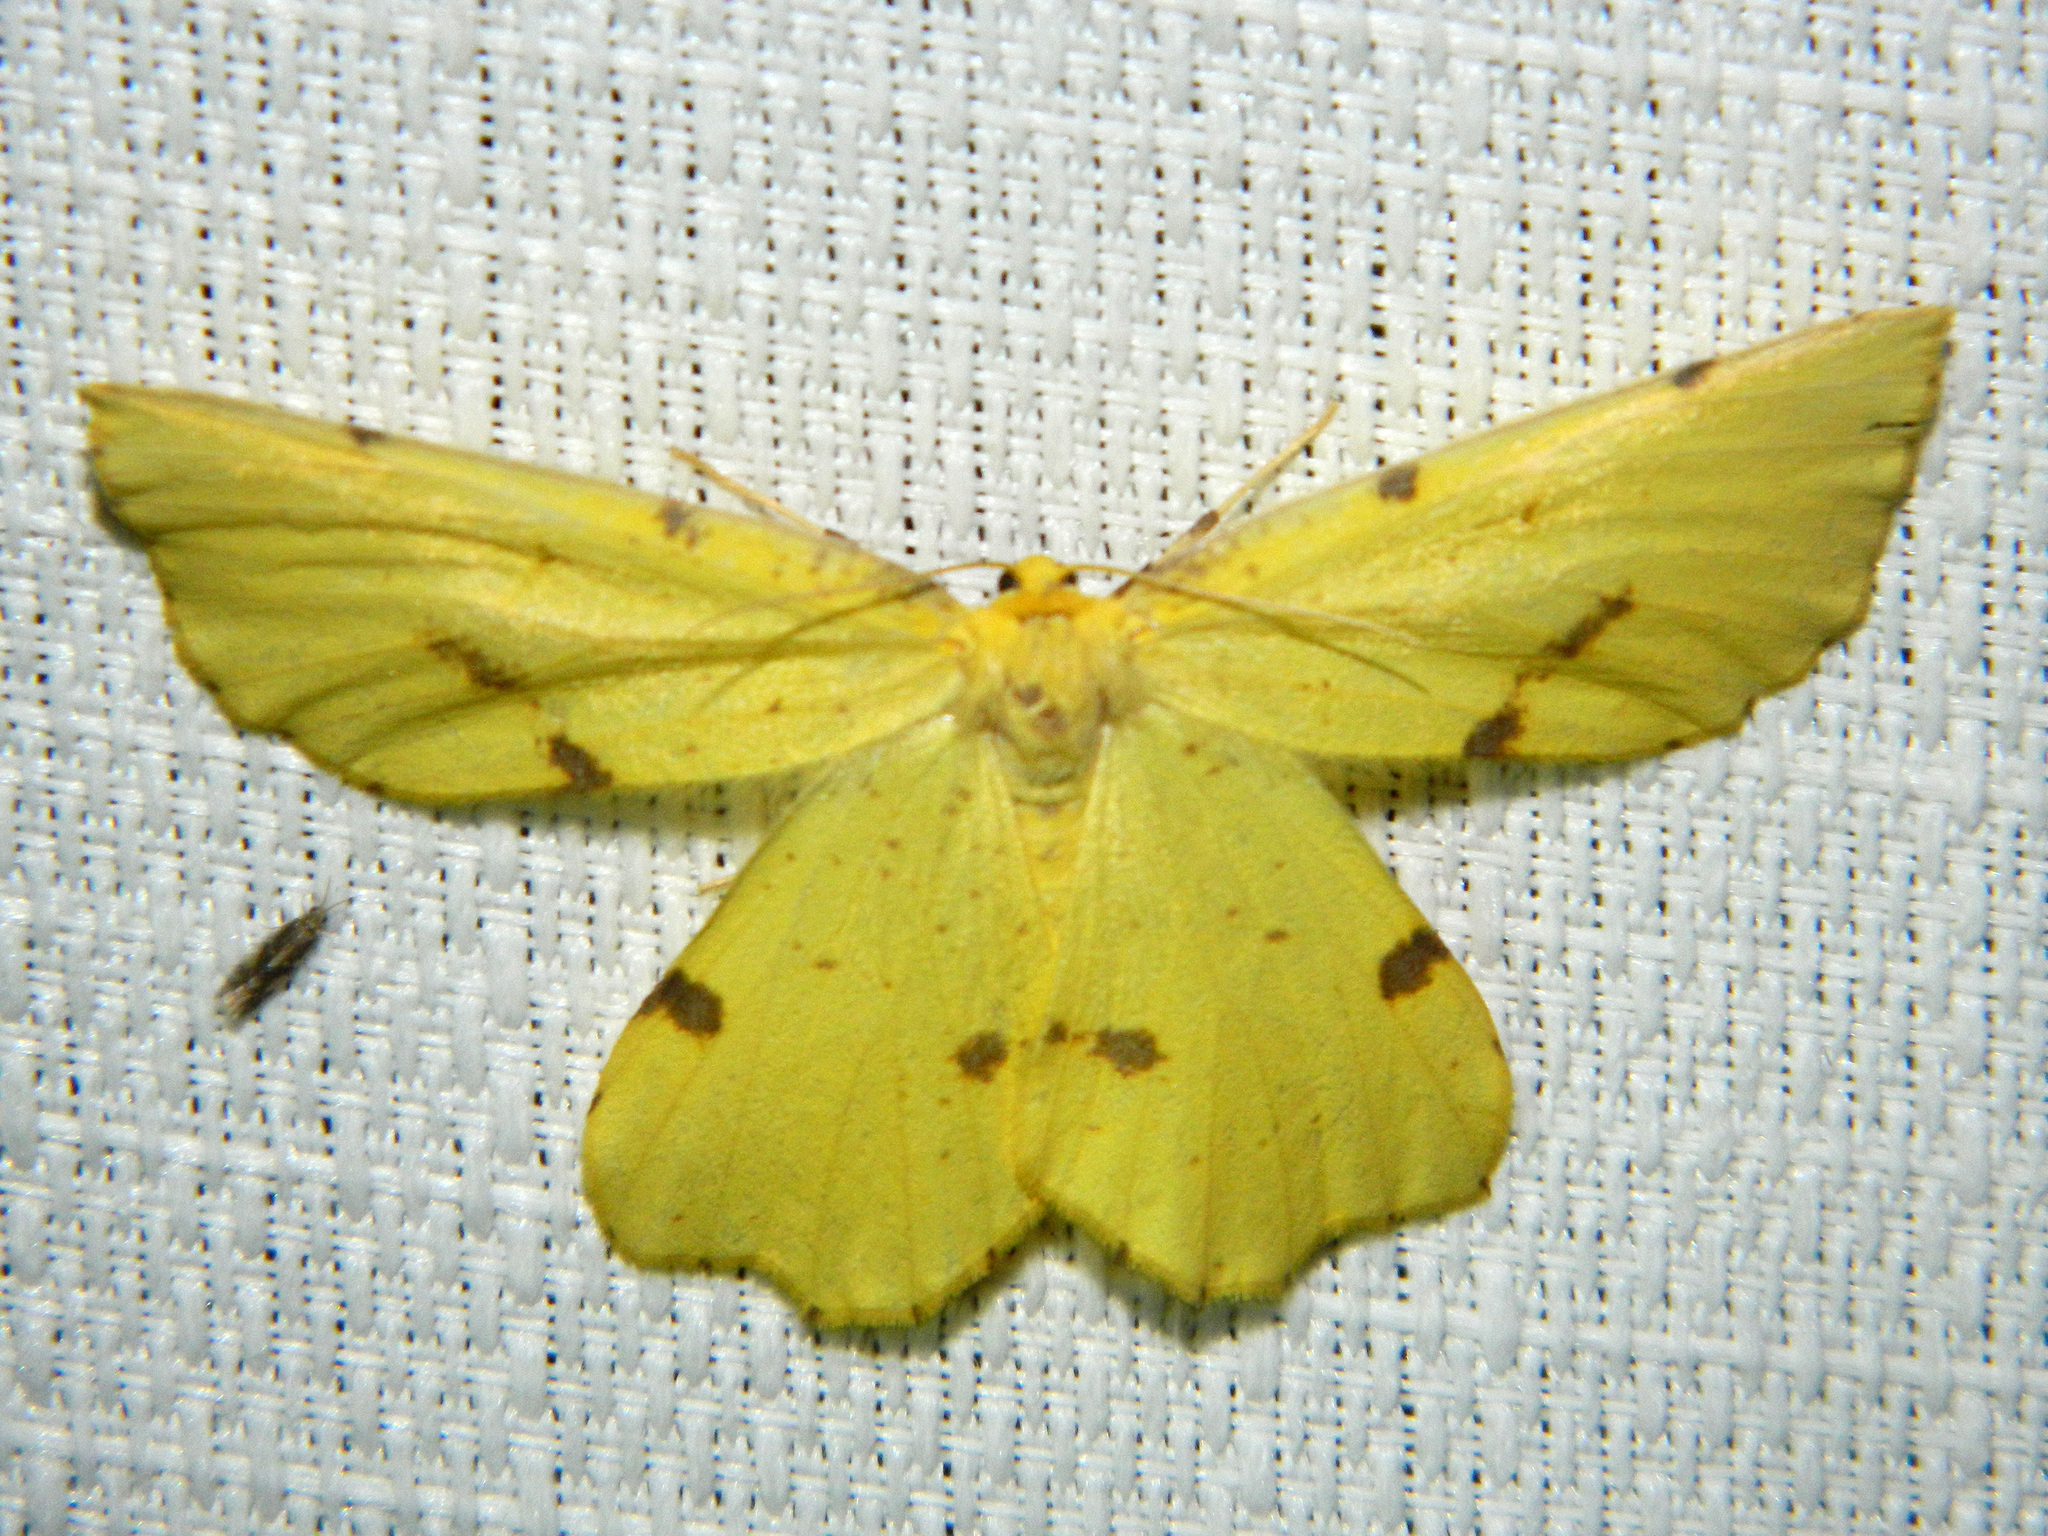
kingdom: Animalia
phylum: Arthropoda
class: Insecta
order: Lepidoptera
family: Geometridae
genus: Xanthotype
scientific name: Xanthotype
